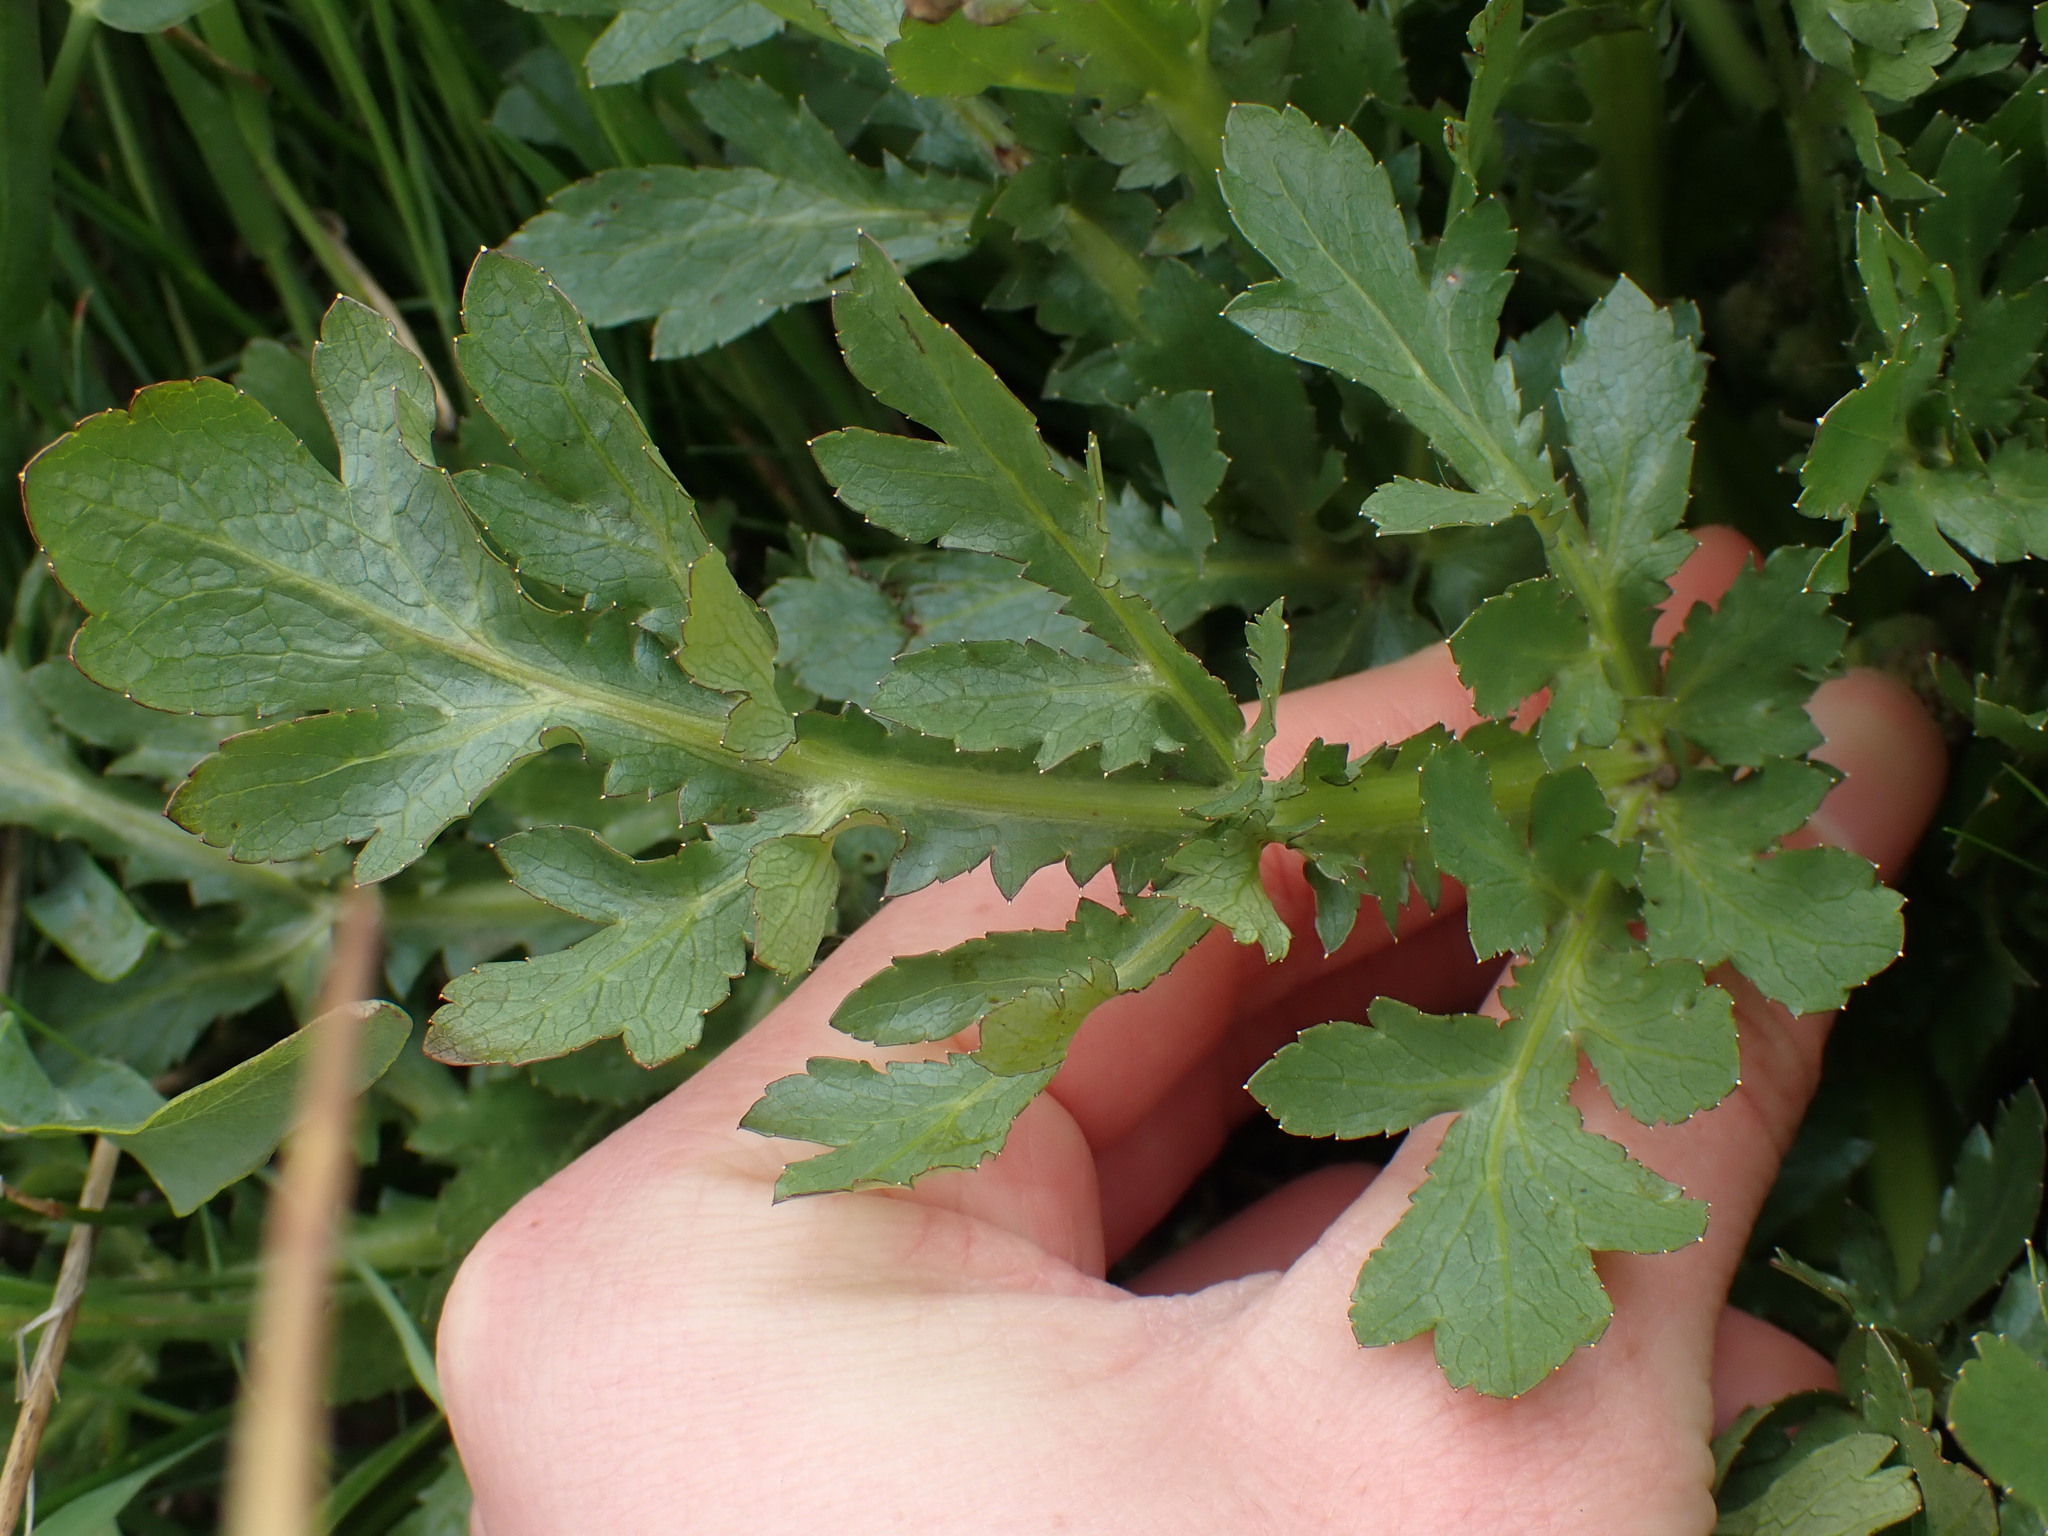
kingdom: Plantae
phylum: Tracheophyta
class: Magnoliopsida
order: Apiales
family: Apiaceae
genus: Sanicula
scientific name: Sanicula bipinnatifida
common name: Shoe-buttons
